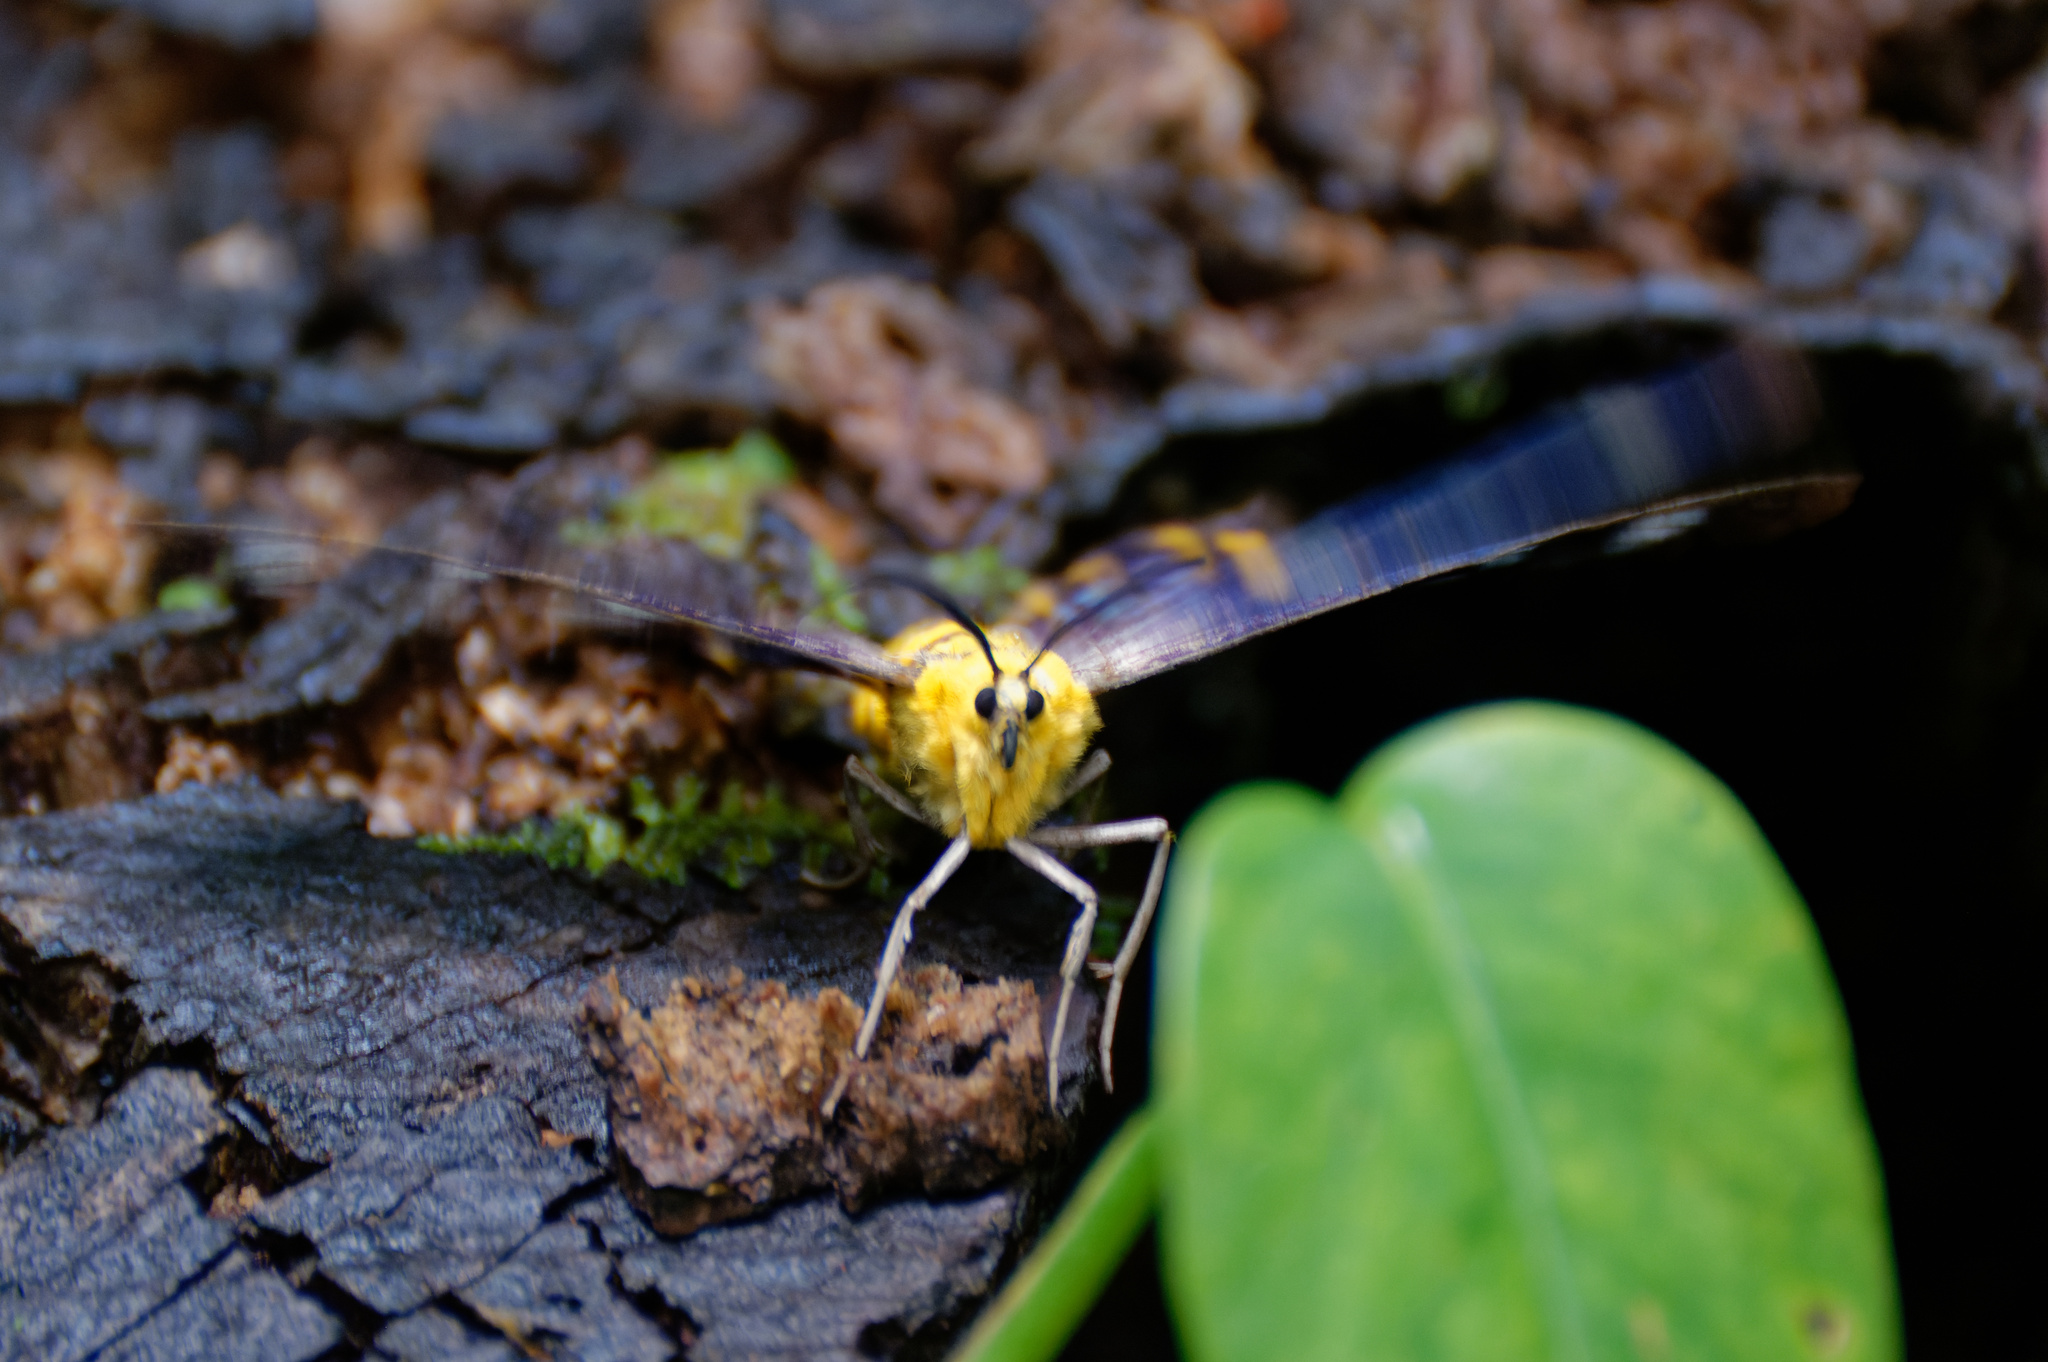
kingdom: Animalia
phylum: Arthropoda
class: Insecta
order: Lepidoptera
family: Geometridae
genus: Dysphania
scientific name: Dysphania numana
